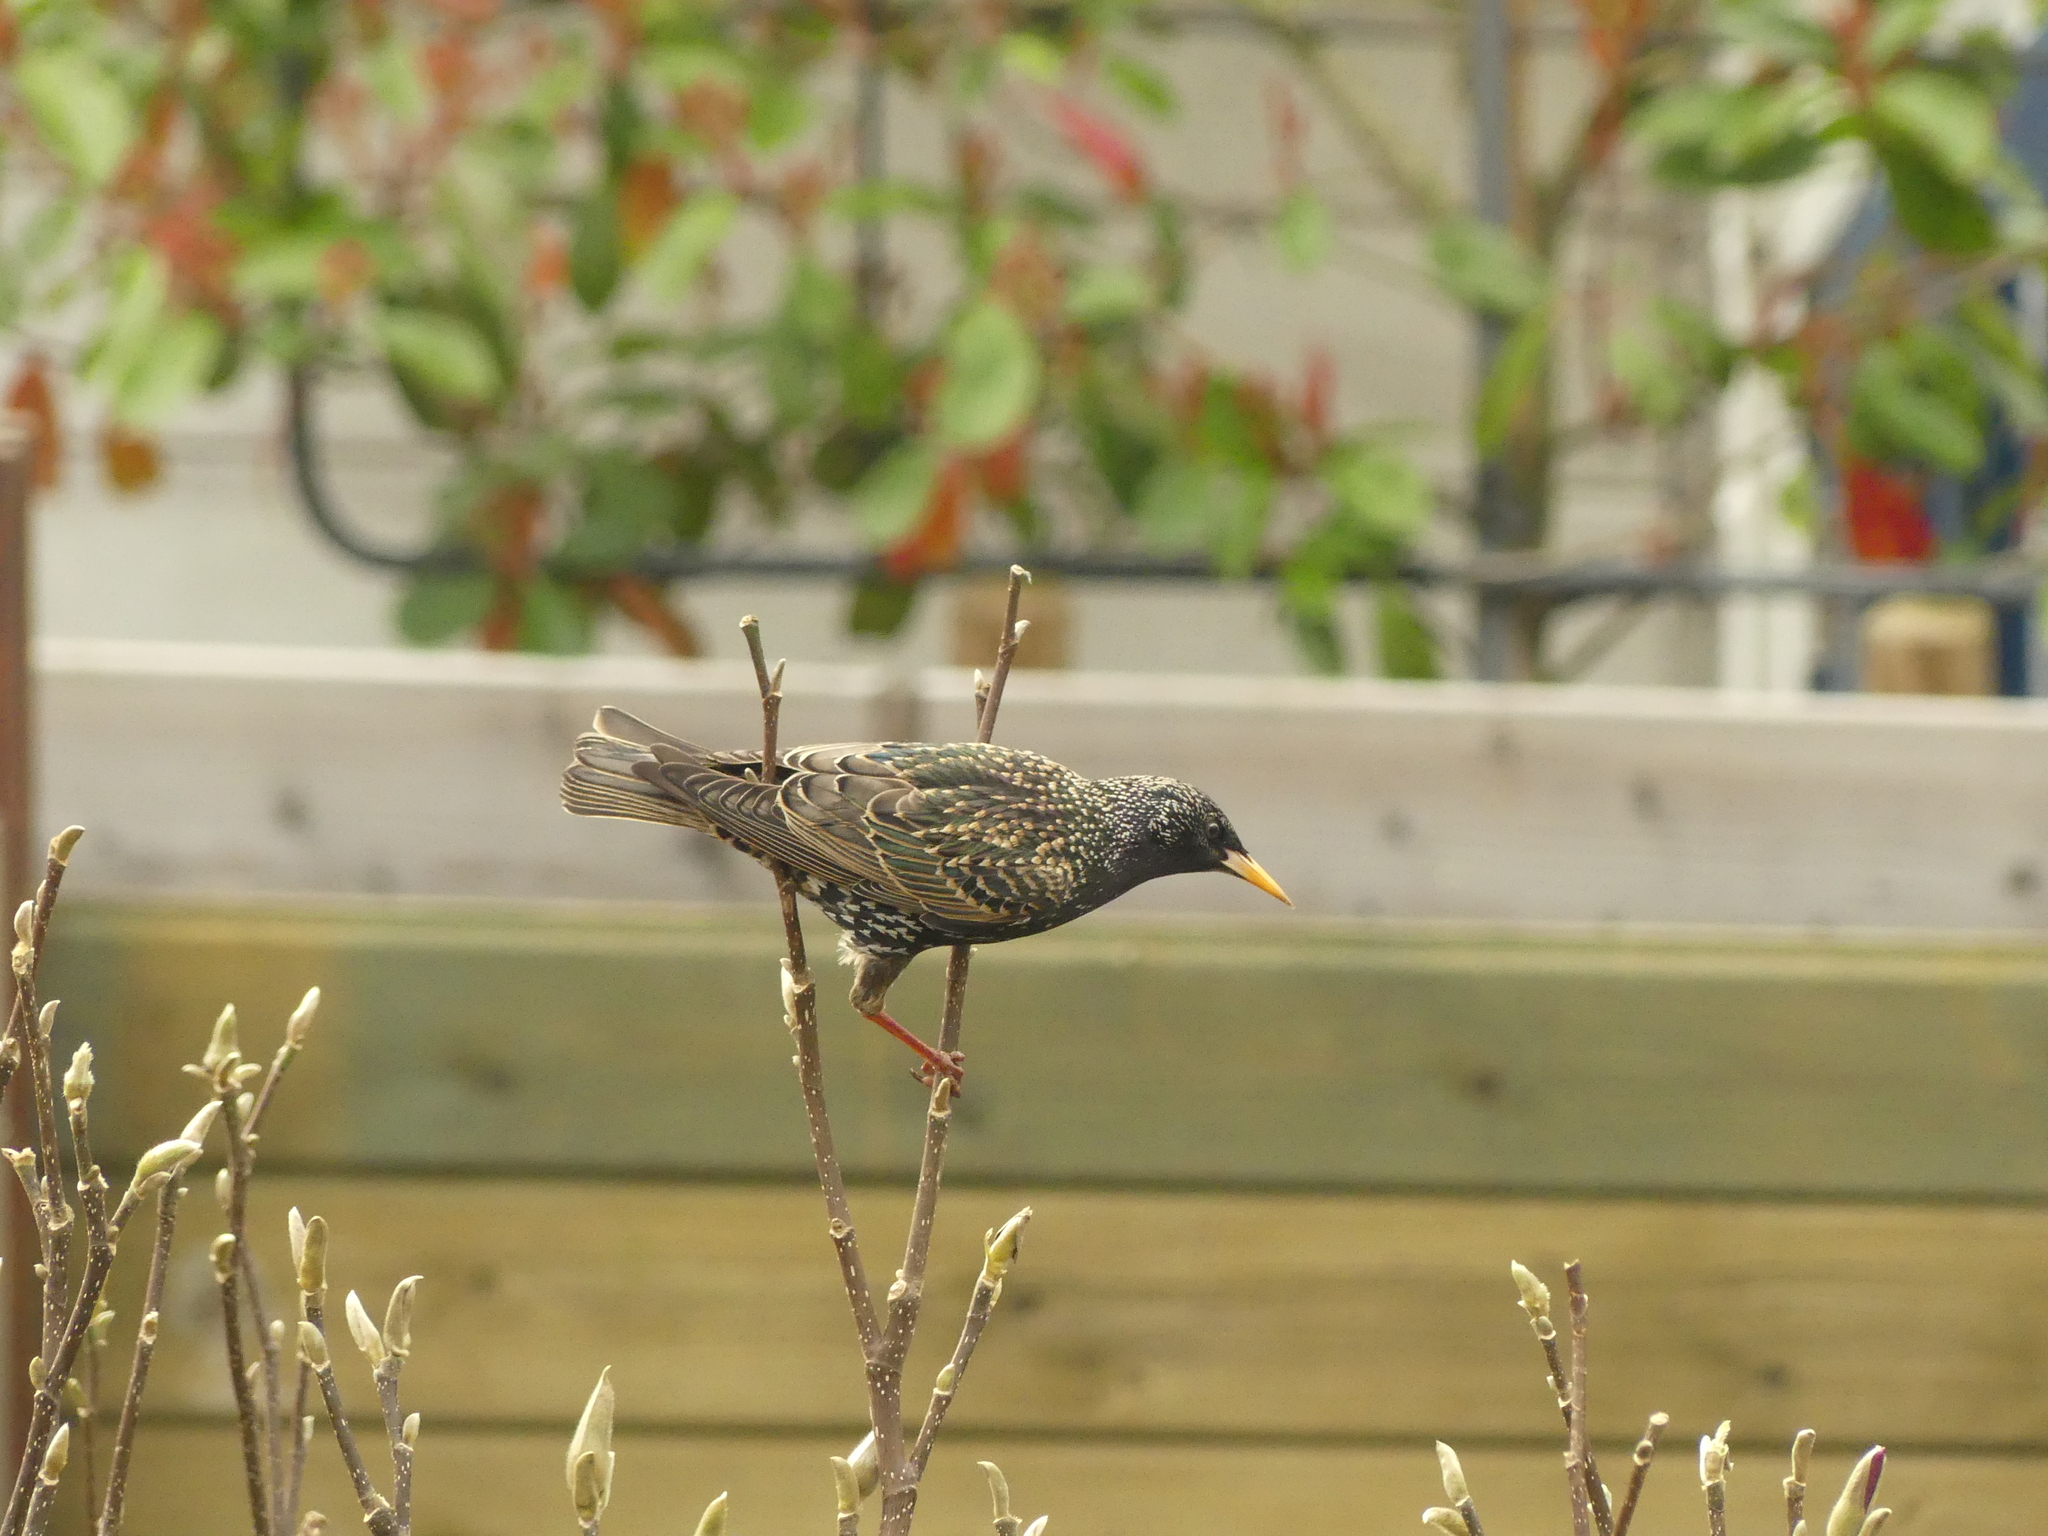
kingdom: Animalia
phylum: Chordata
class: Aves
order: Passeriformes
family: Sturnidae
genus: Sturnus
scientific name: Sturnus vulgaris
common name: Common starling
